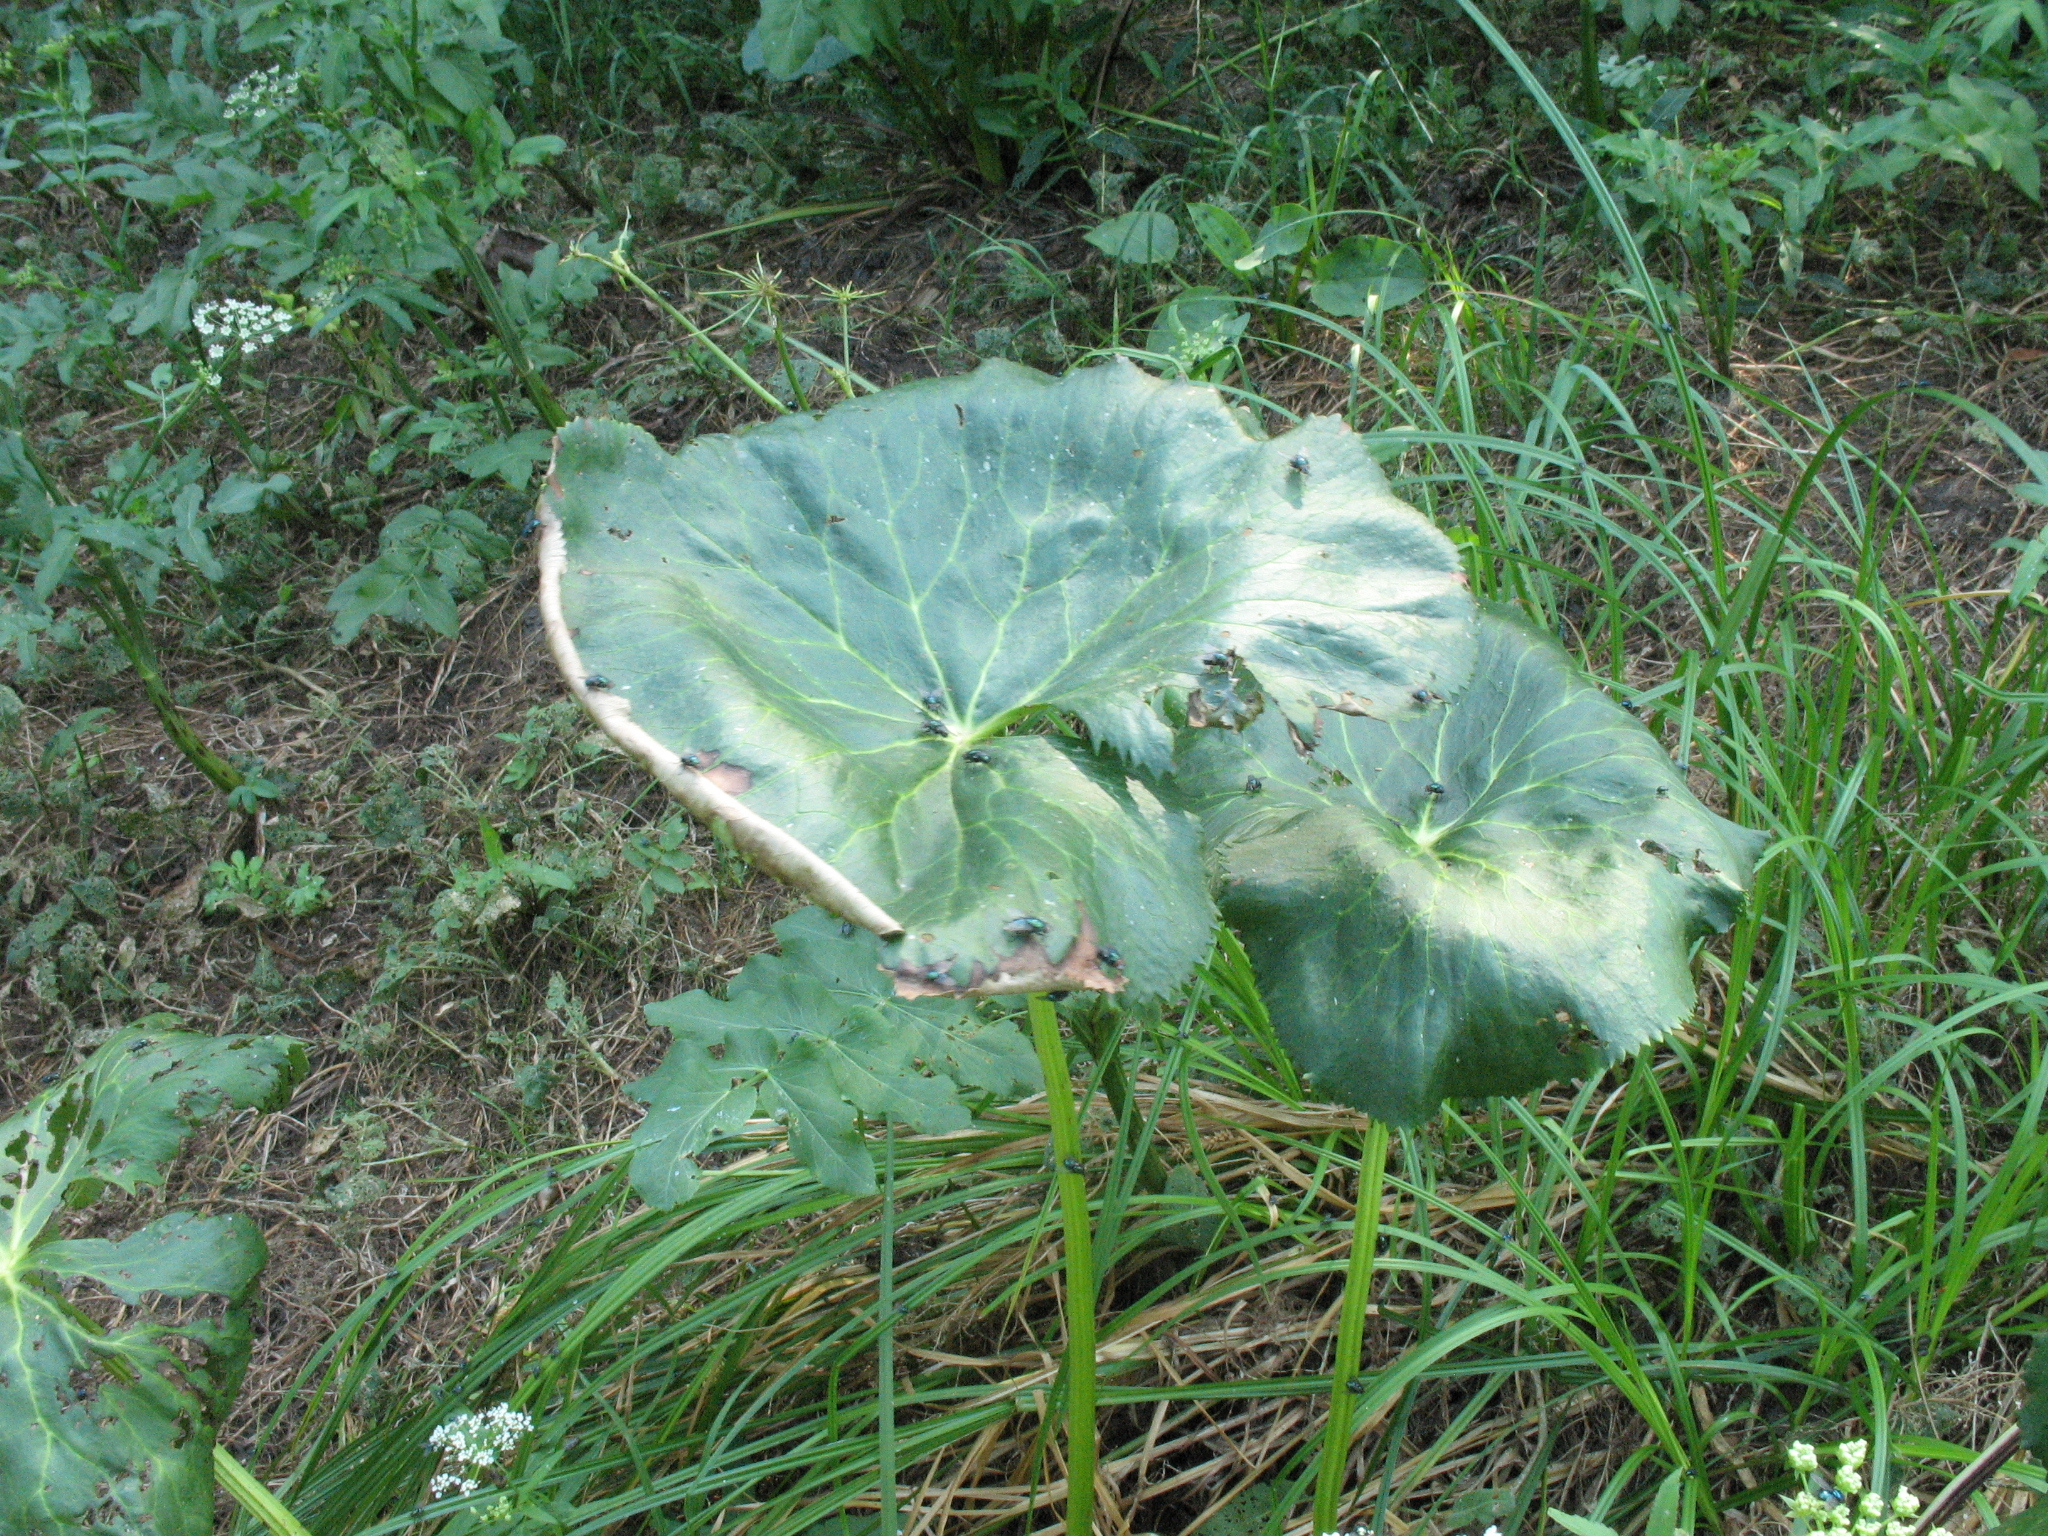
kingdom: Plantae
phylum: Tracheophyta
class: Magnoliopsida
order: Ranunculales
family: Ranunculaceae
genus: Caltha
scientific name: Caltha palustris
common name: Marsh marigold
